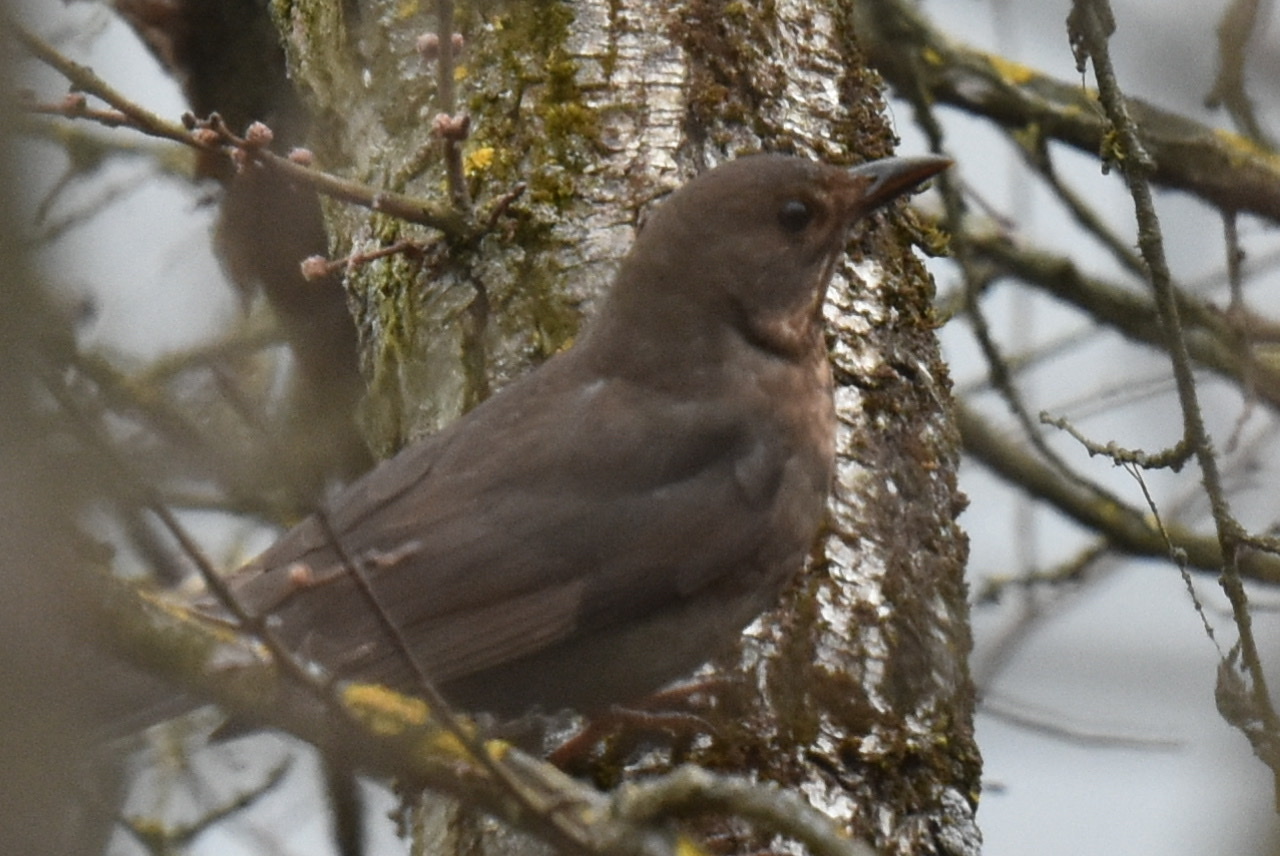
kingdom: Animalia
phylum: Chordata
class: Aves
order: Passeriformes
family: Turdidae
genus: Turdus
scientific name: Turdus merula
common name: Common blackbird
